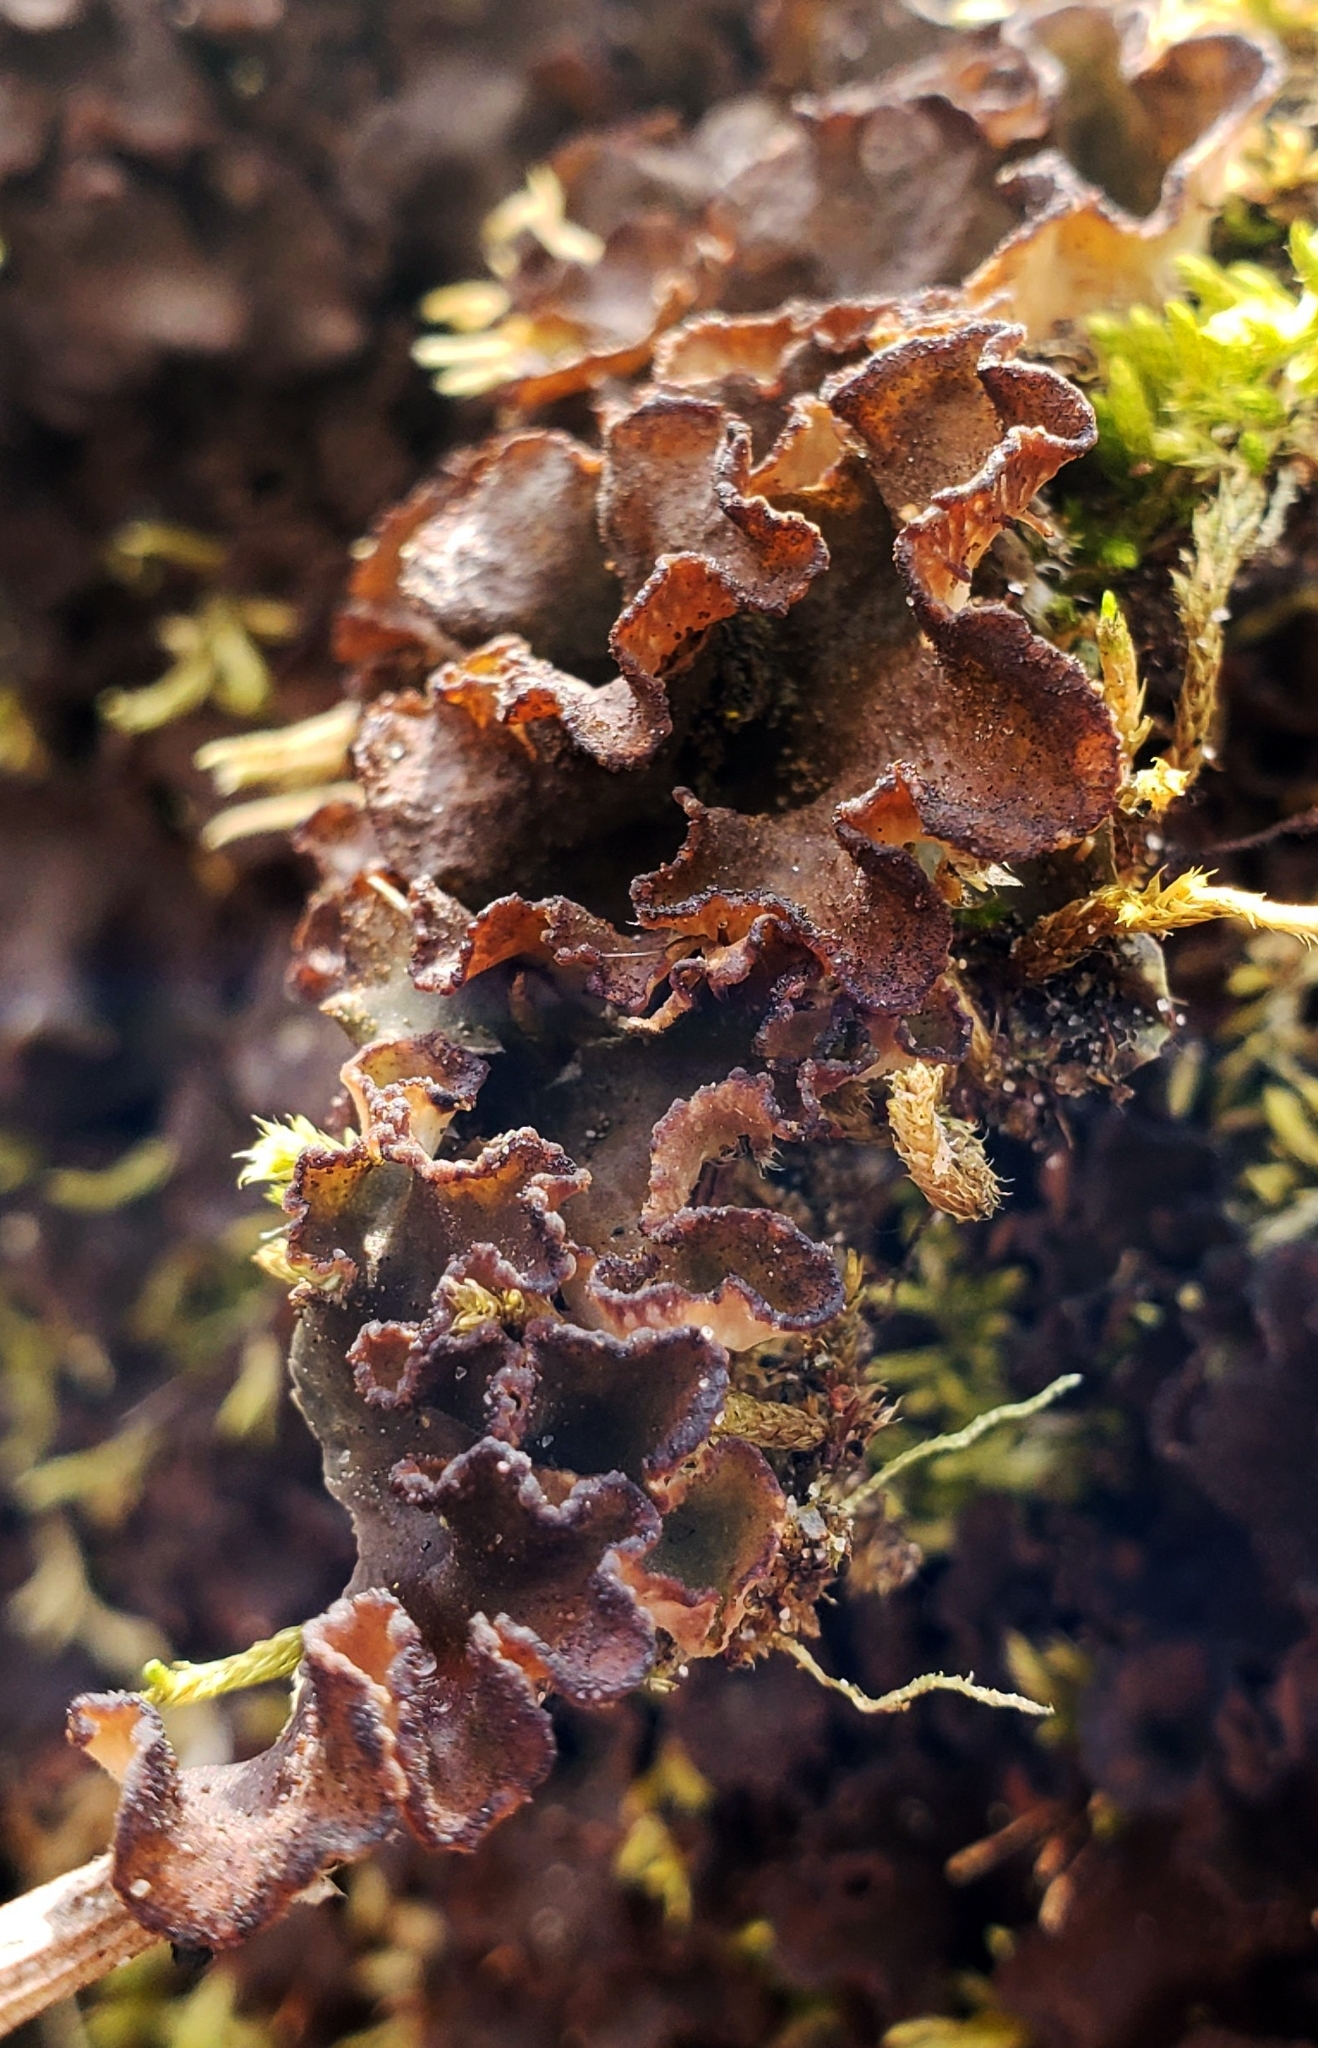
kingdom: Fungi
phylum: Ascomycota
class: Lecanoromycetes
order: Peltigerales
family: Peltigeraceae
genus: Peltigera
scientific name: Peltigera evansiana
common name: Peppered pelt lichen
